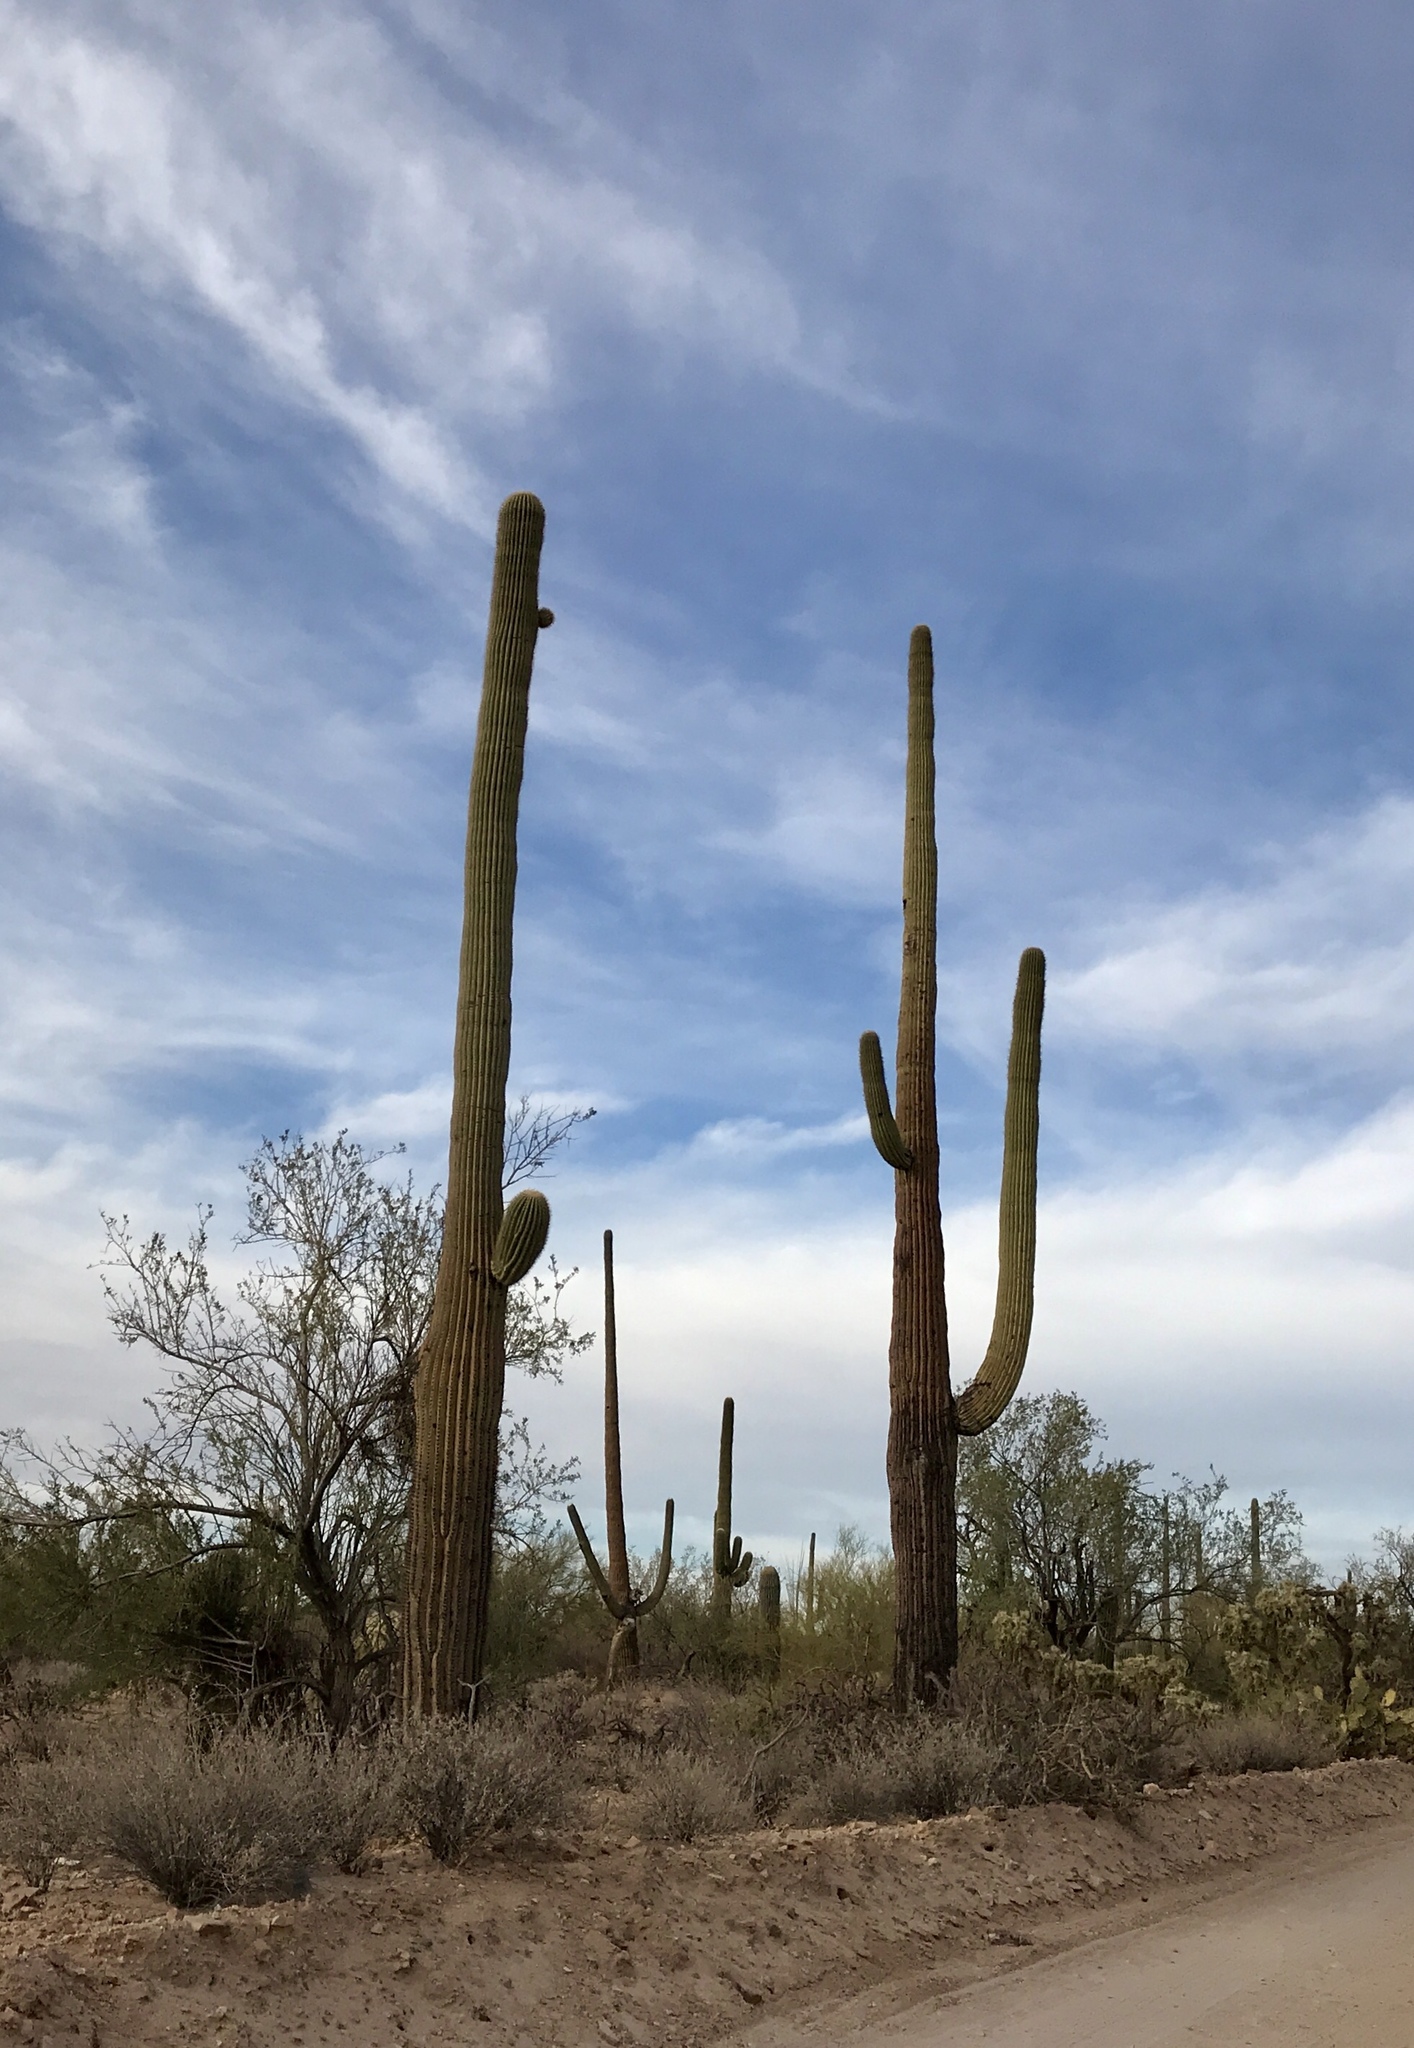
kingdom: Plantae
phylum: Tracheophyta
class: Magnoliopsida
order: Caryophyllales
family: Cactaceae
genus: Carnegiea
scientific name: Carnegiea gigantea
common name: Saguaro
